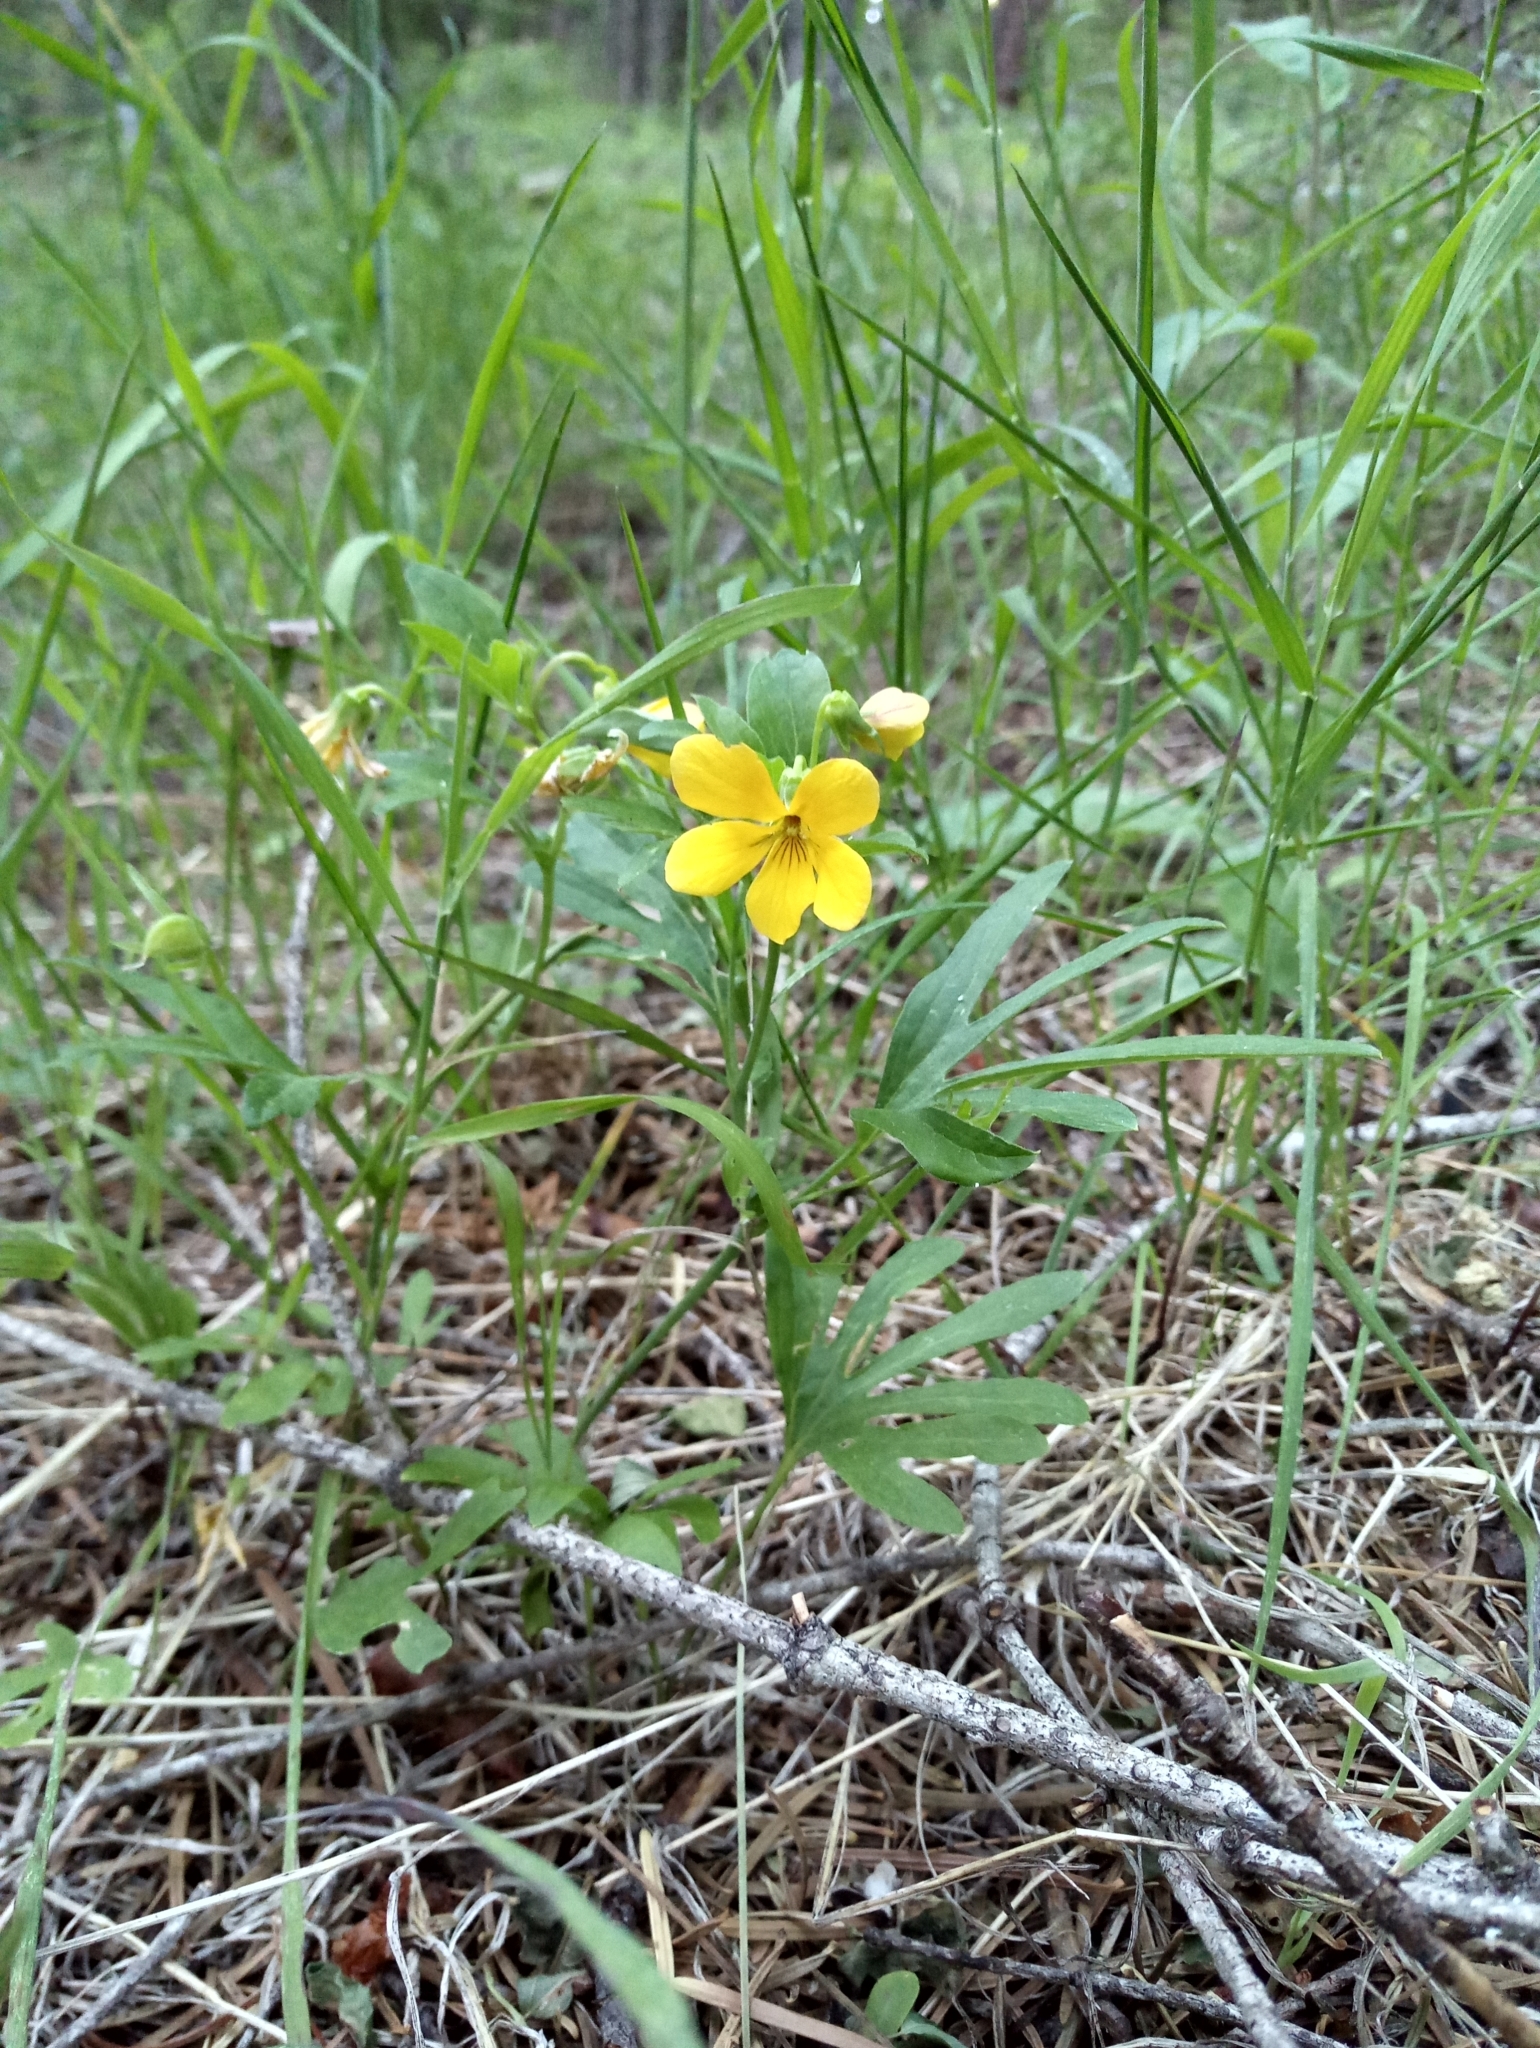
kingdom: Plantae
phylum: Tracheophyta
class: Magnoliopsida
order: Malpighiales
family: Violaceae
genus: Viola
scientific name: Viola lobata
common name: Pine violet
